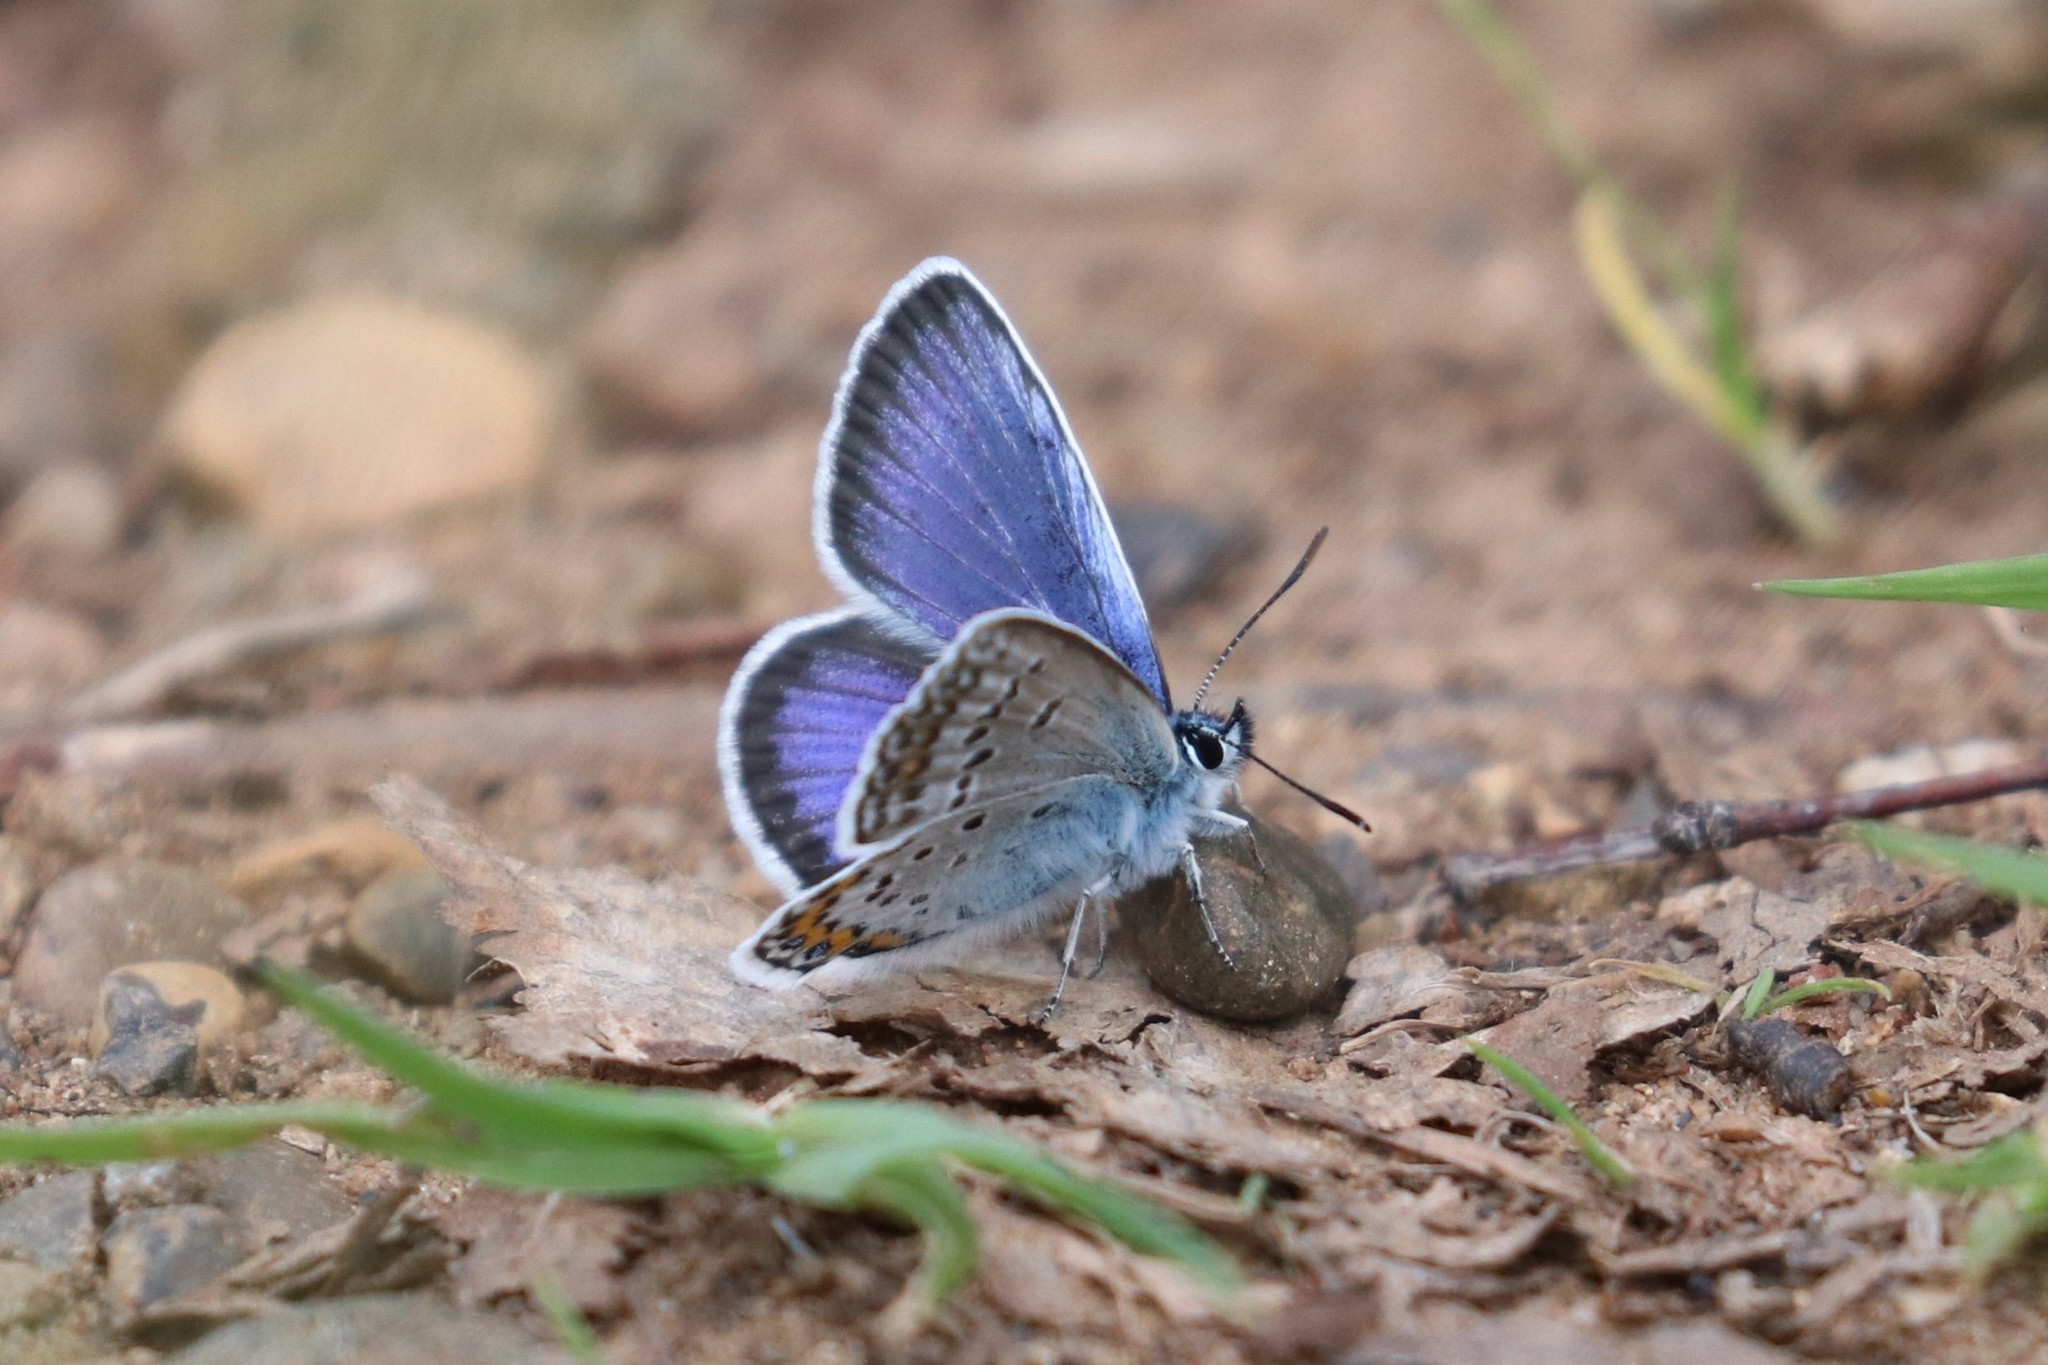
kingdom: Animalia
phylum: Arthropoda
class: Insecta
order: Lepidoptera
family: Lycaenidae
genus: Plebejus
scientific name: Plebejus argus
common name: Silver-studded blue
